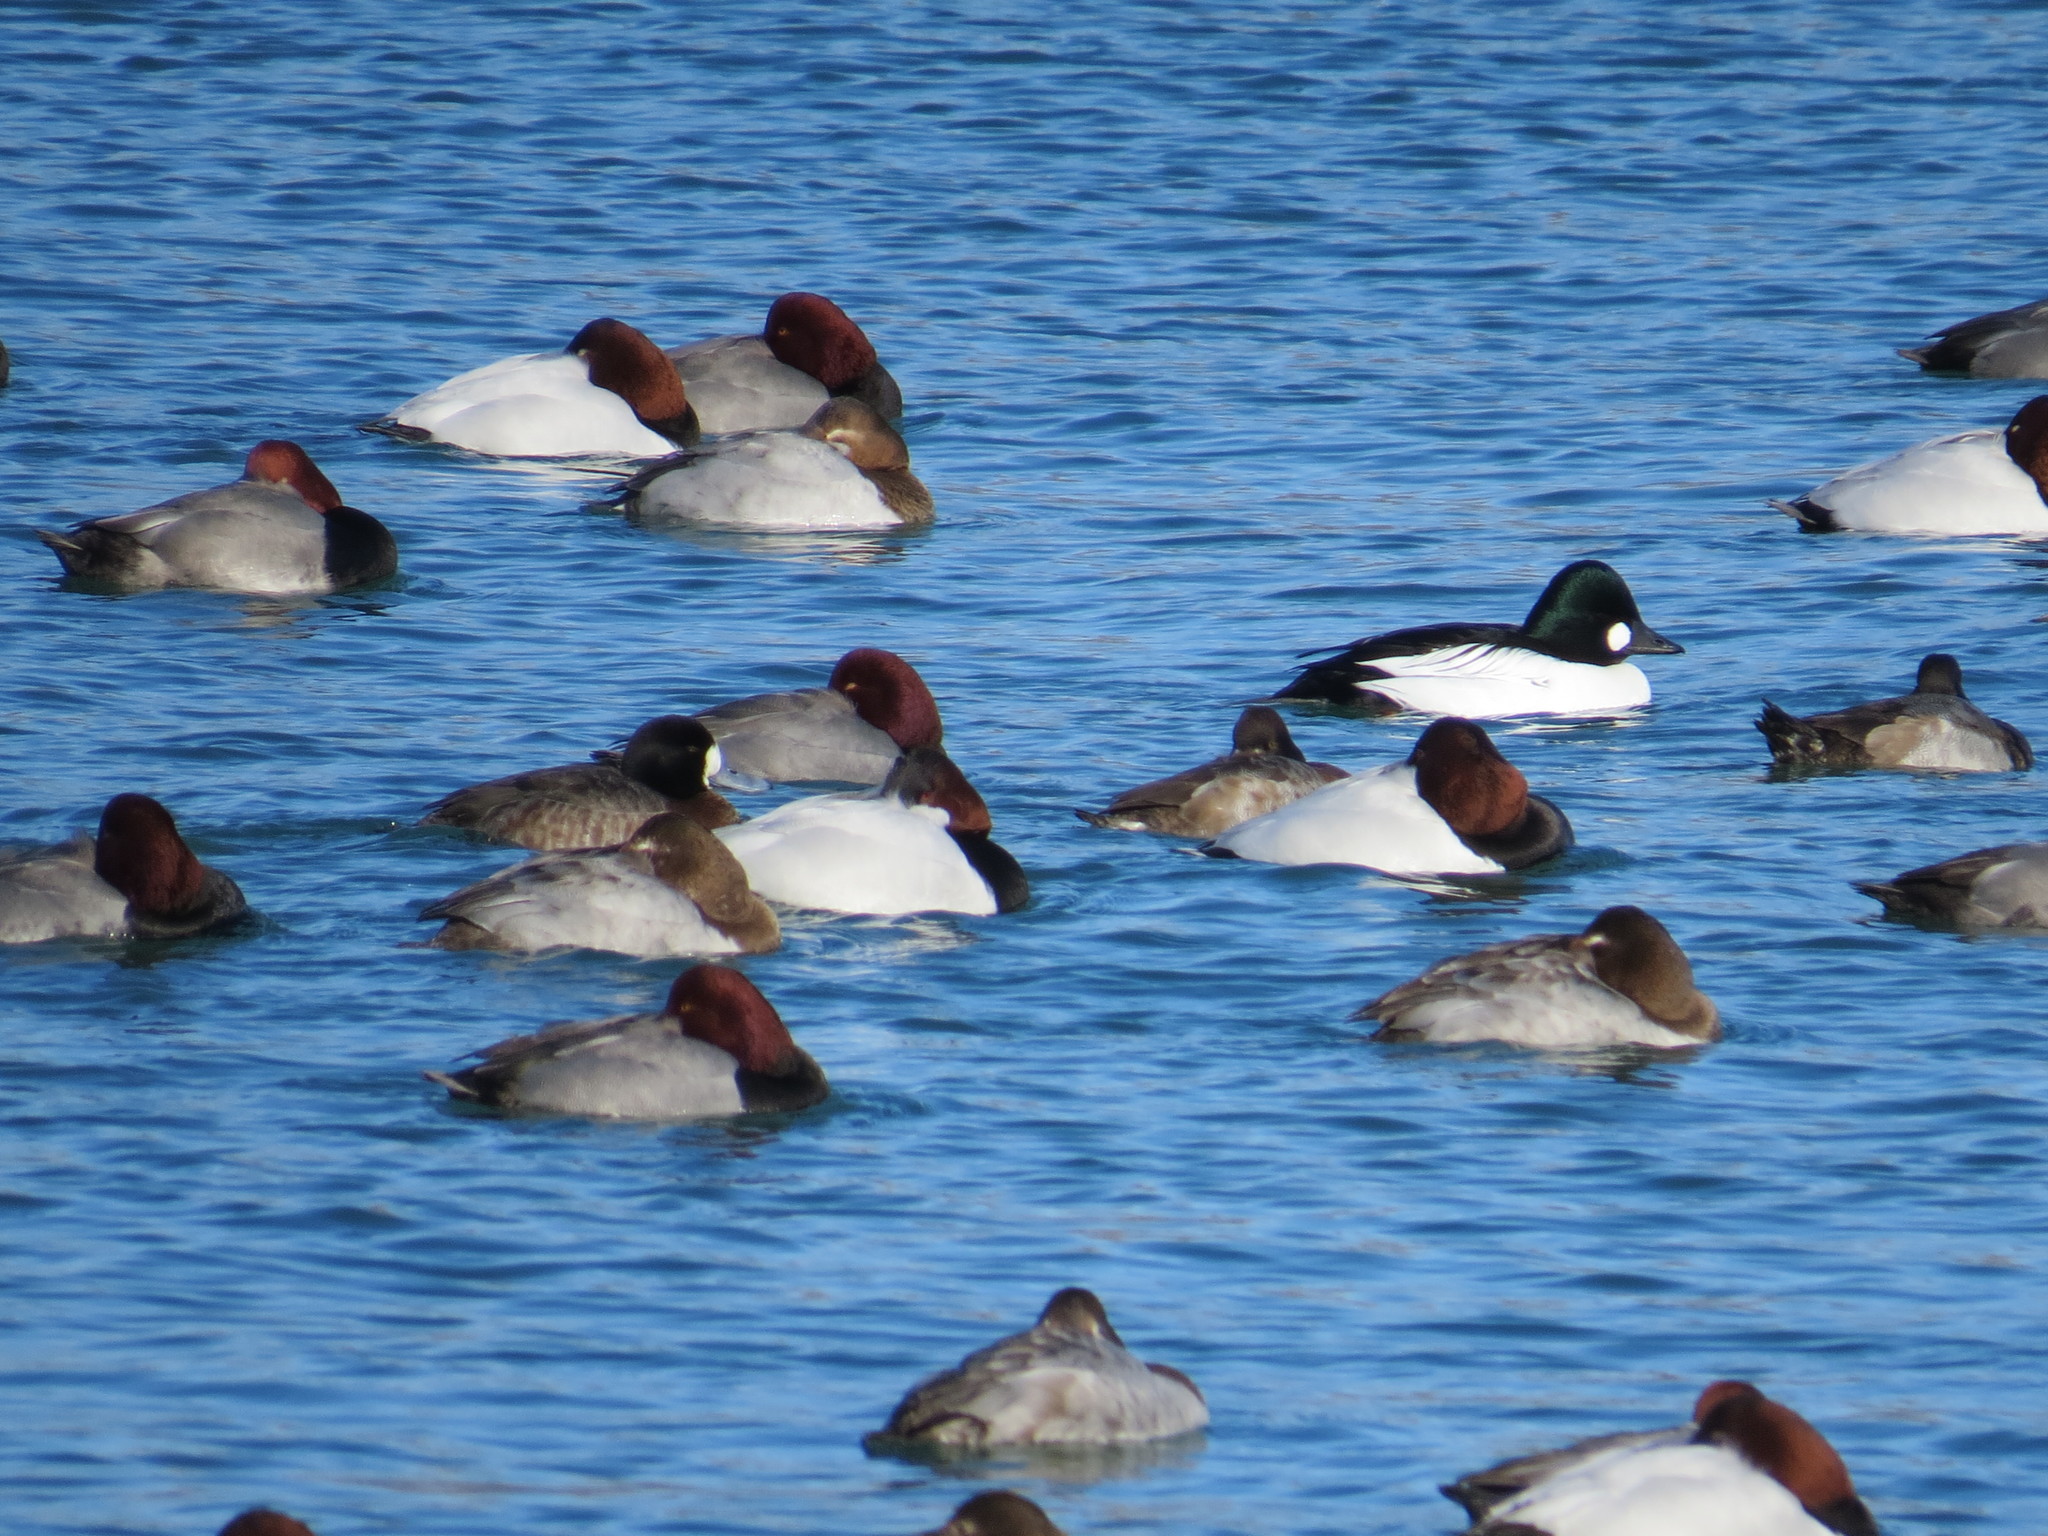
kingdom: Animalia
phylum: Chordata
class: Aves
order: Anseriformes
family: Anatidae
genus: Aythya
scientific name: Aythya americana
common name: Redhead
